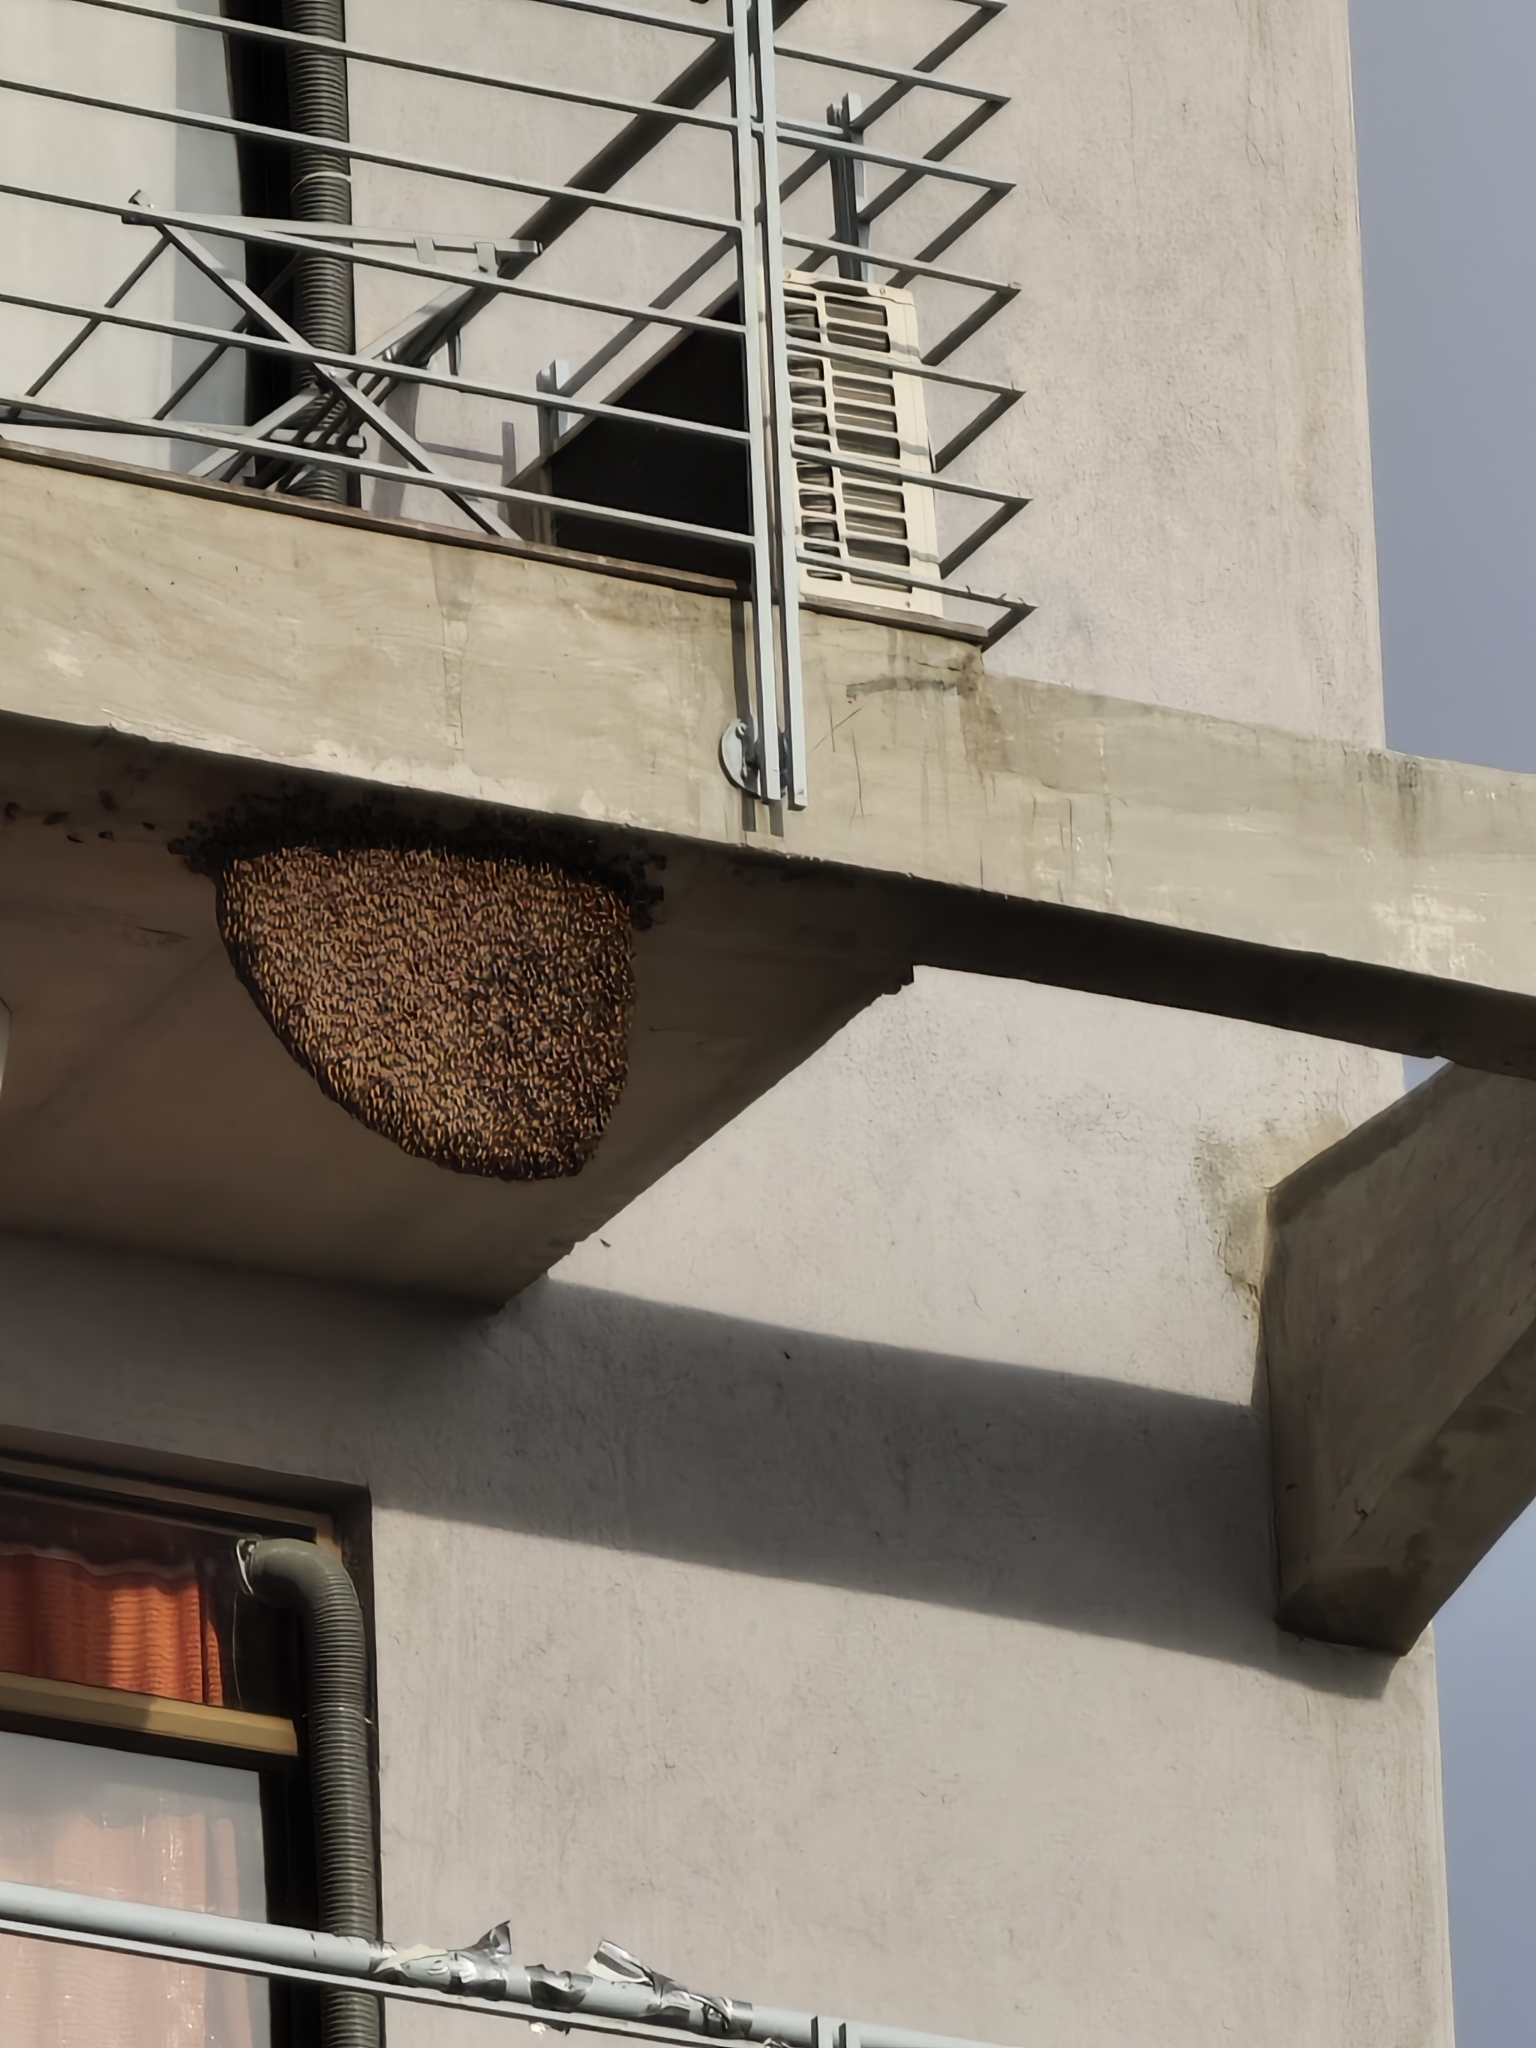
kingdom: Animalia
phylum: Arthropoda
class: Insecta
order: Hymenoptera
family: Apidae
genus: Apis
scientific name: Apis dorsata
